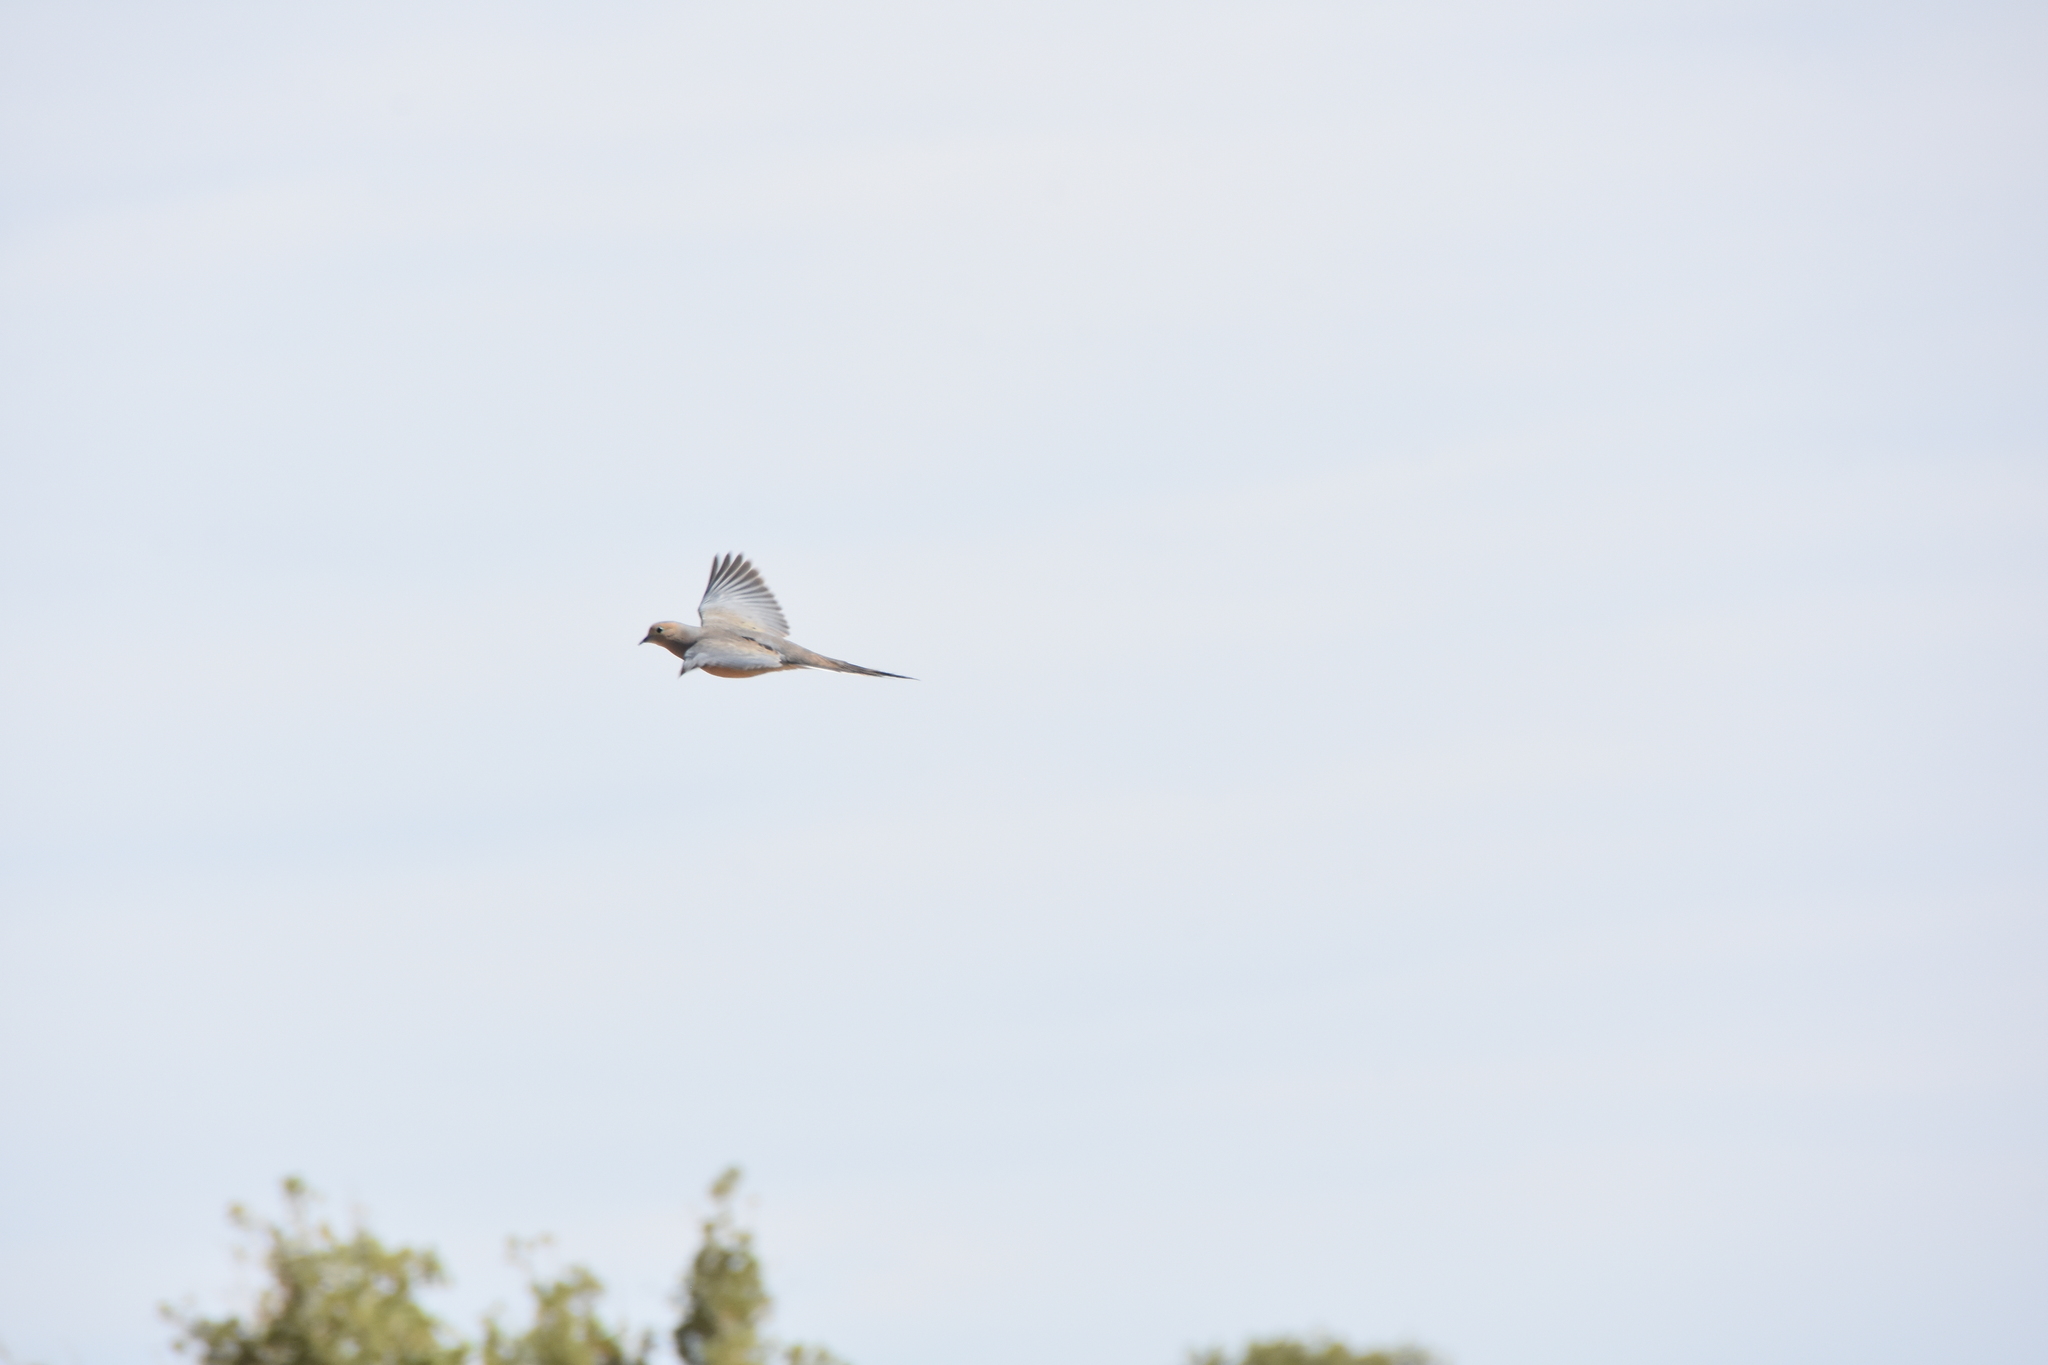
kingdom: Animalia
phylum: Chordata
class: Aves
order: Columbiformes
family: Columbidae
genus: Zenaida
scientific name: Zenaida macroura
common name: Mourning dove
